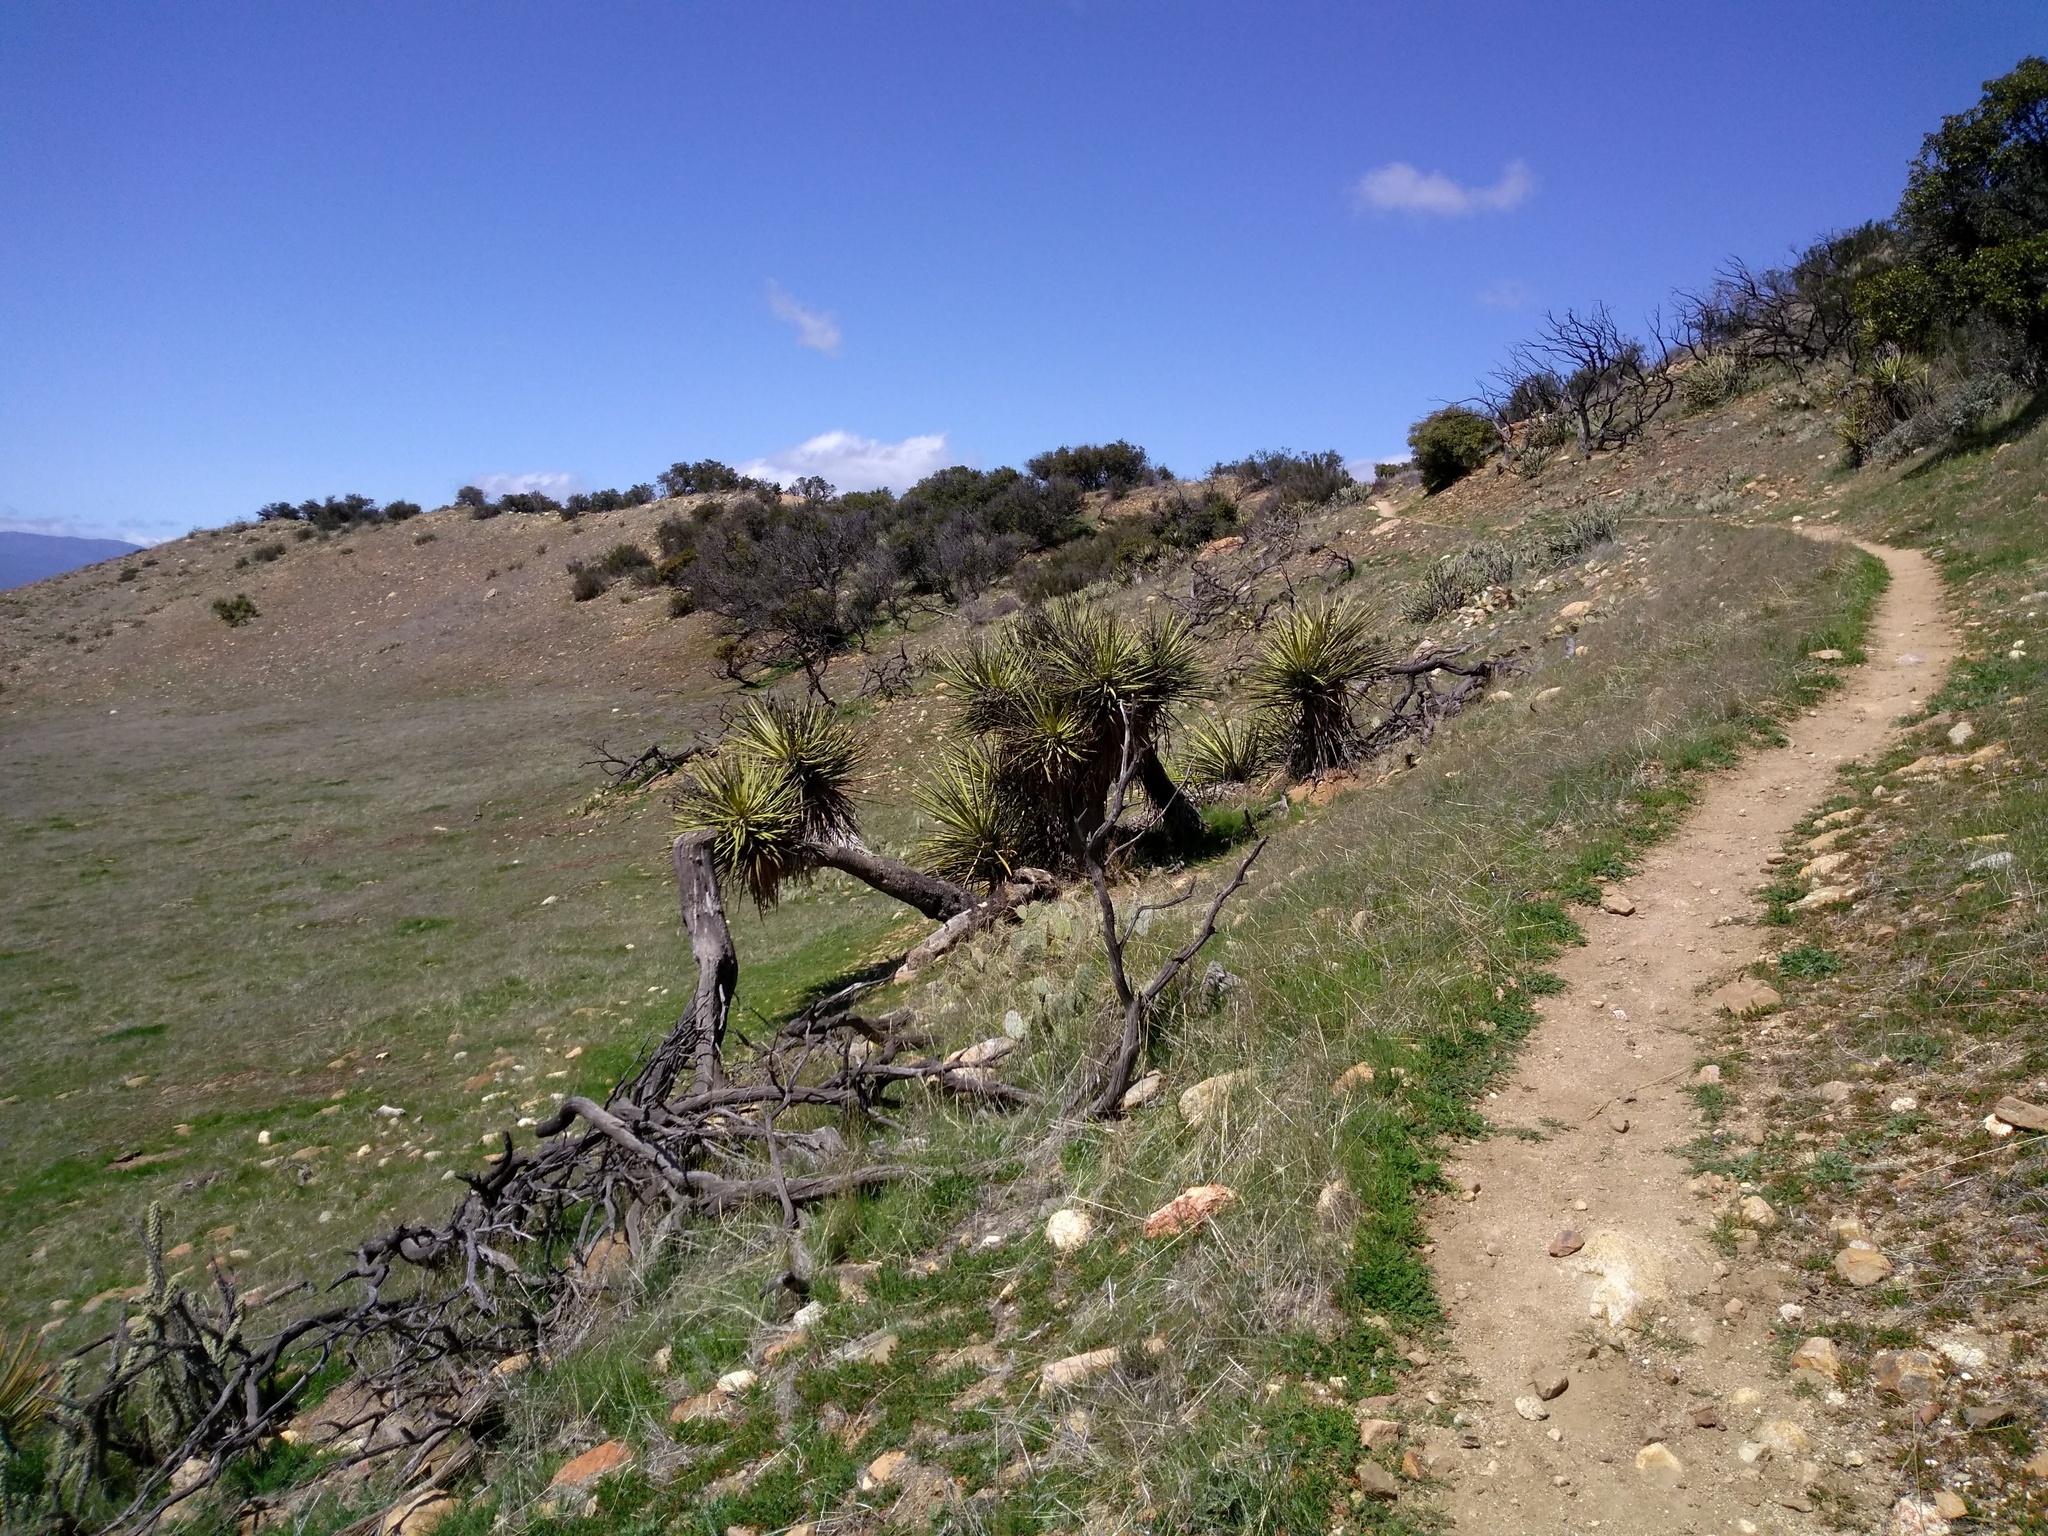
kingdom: Plantae
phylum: Tracheophyta
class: Liliopsida
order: Asparagales
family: Asparagaceae
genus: Yucca
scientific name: Yucca schidigera
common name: Mojave yucca
